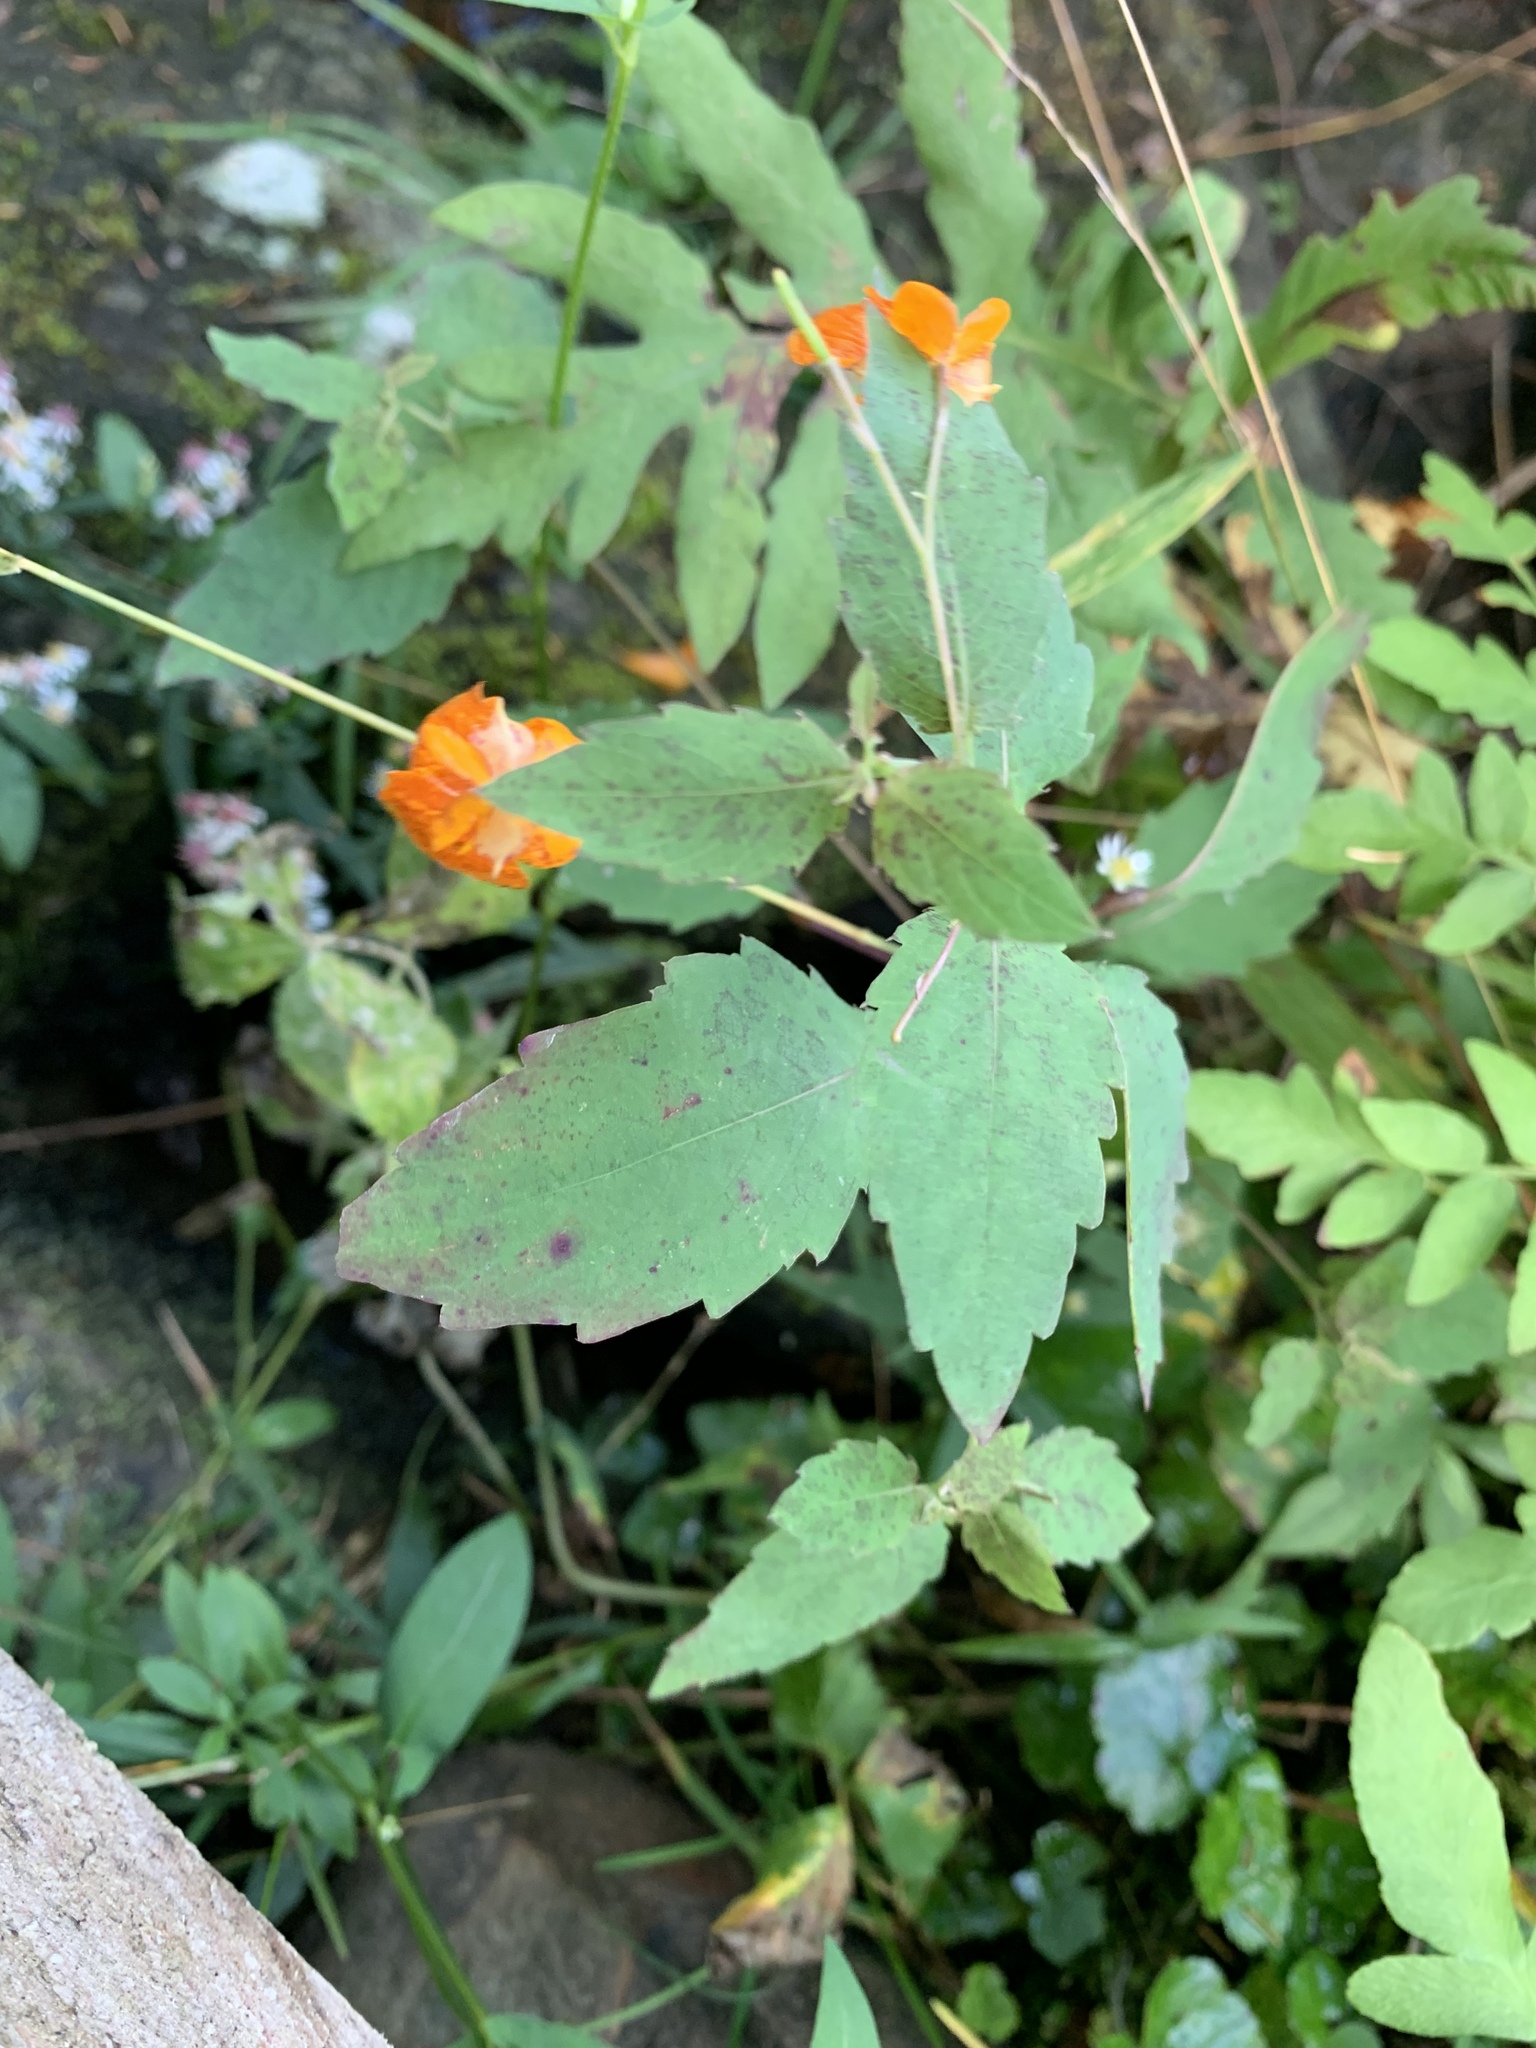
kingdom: Plantae
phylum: Tracheophyta
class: Magnoliopsida
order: Ericales
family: Balsaminaceae
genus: Impatiens
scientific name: Impatiens capensis
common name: Orange balsam
